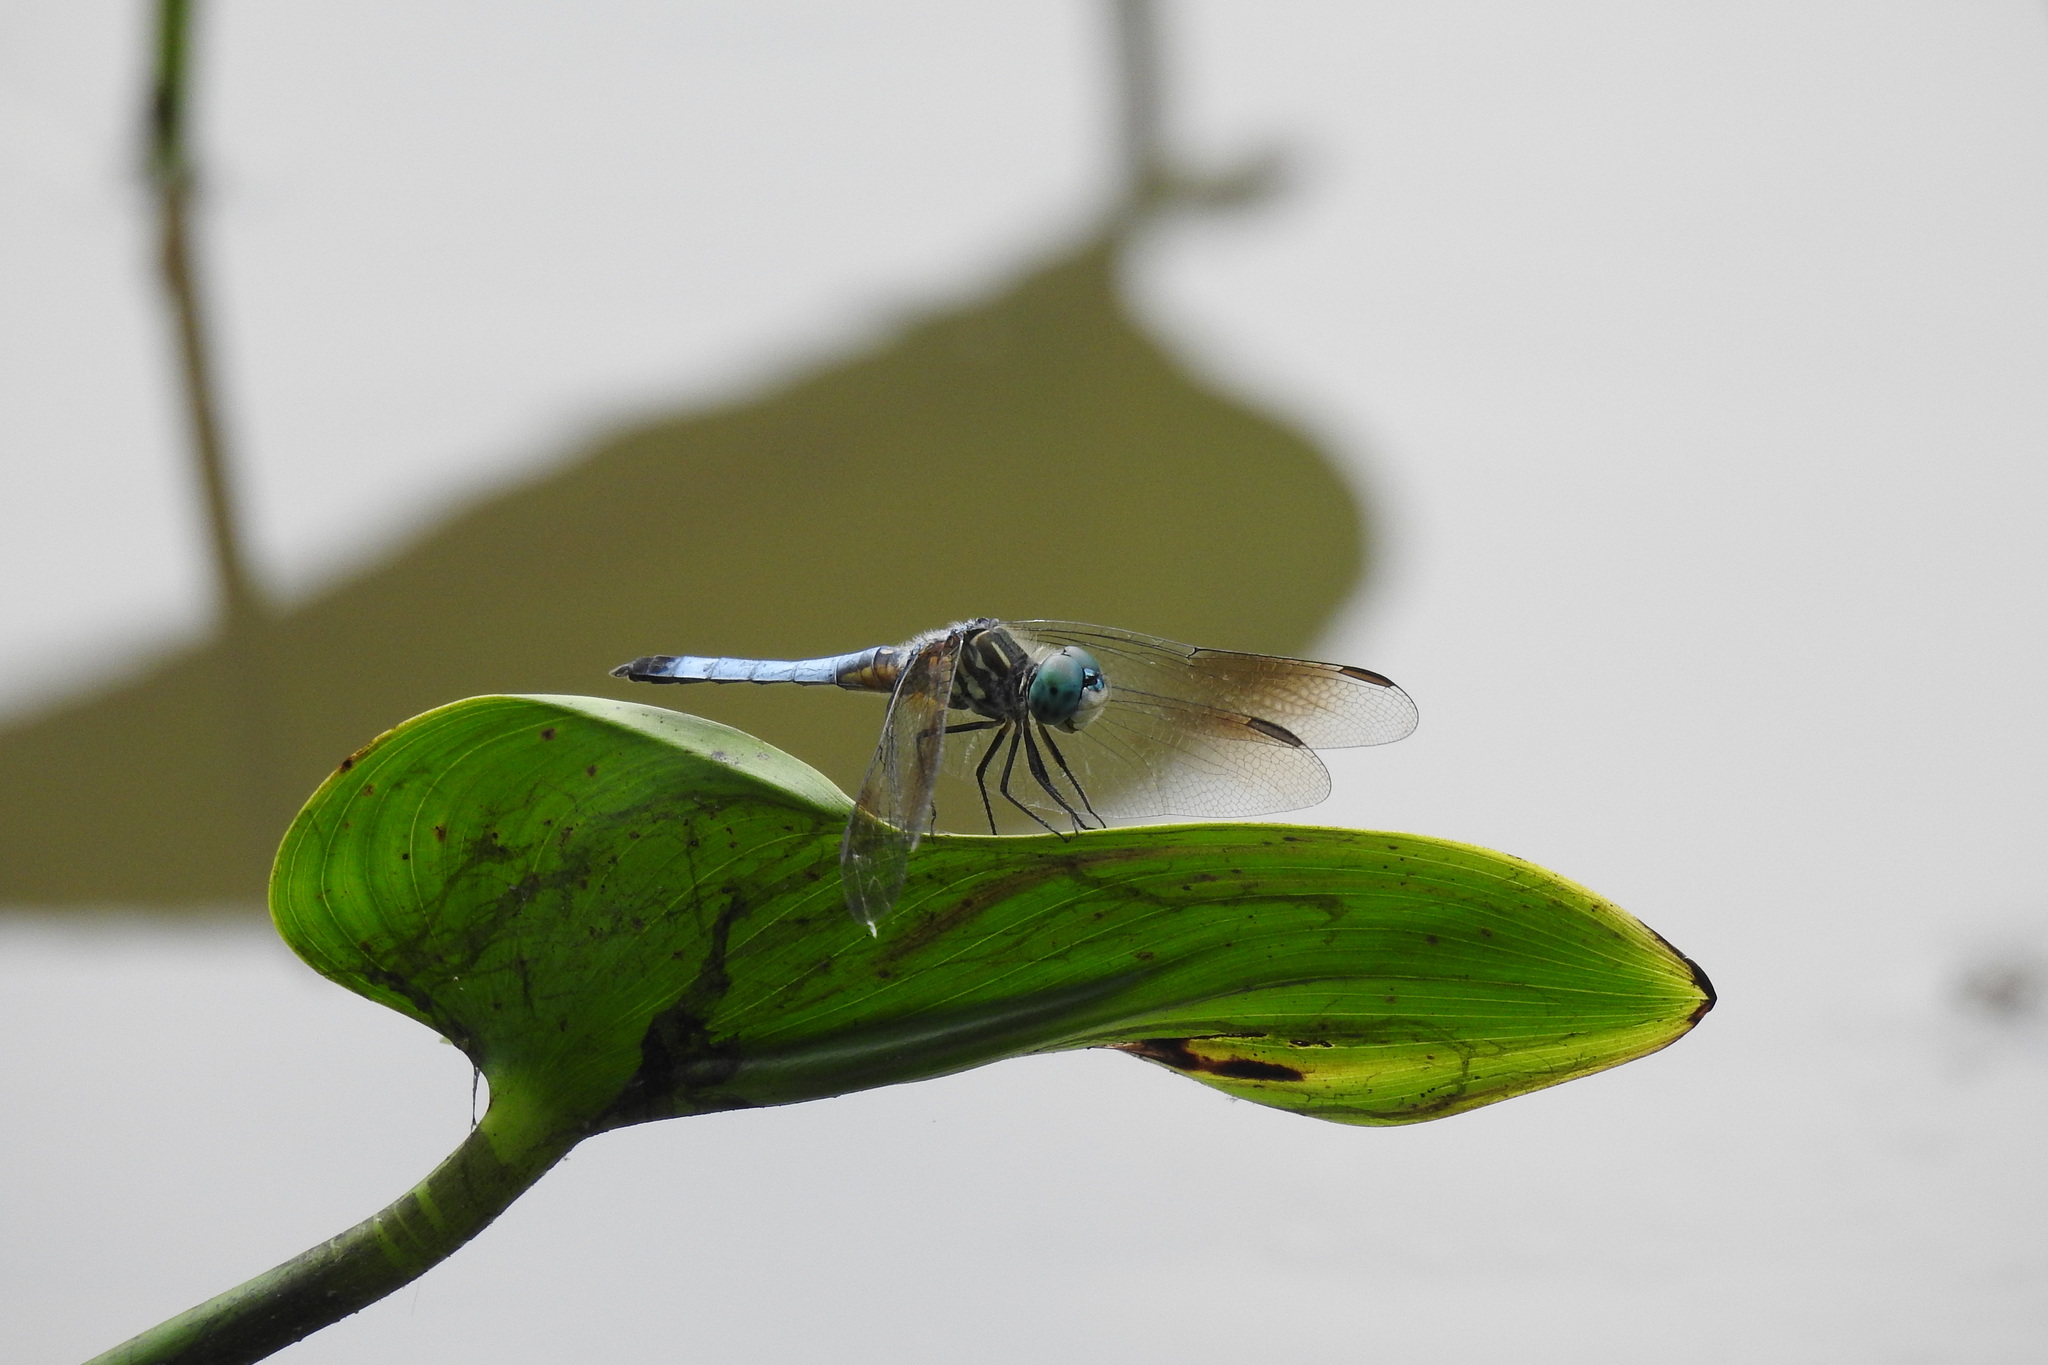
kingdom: Animalia
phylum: Arthropoda
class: Insecta
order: Odonata
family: Libellulidae
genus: Pachydiplax
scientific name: Pachydiplax longipennis
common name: Blue dasher
